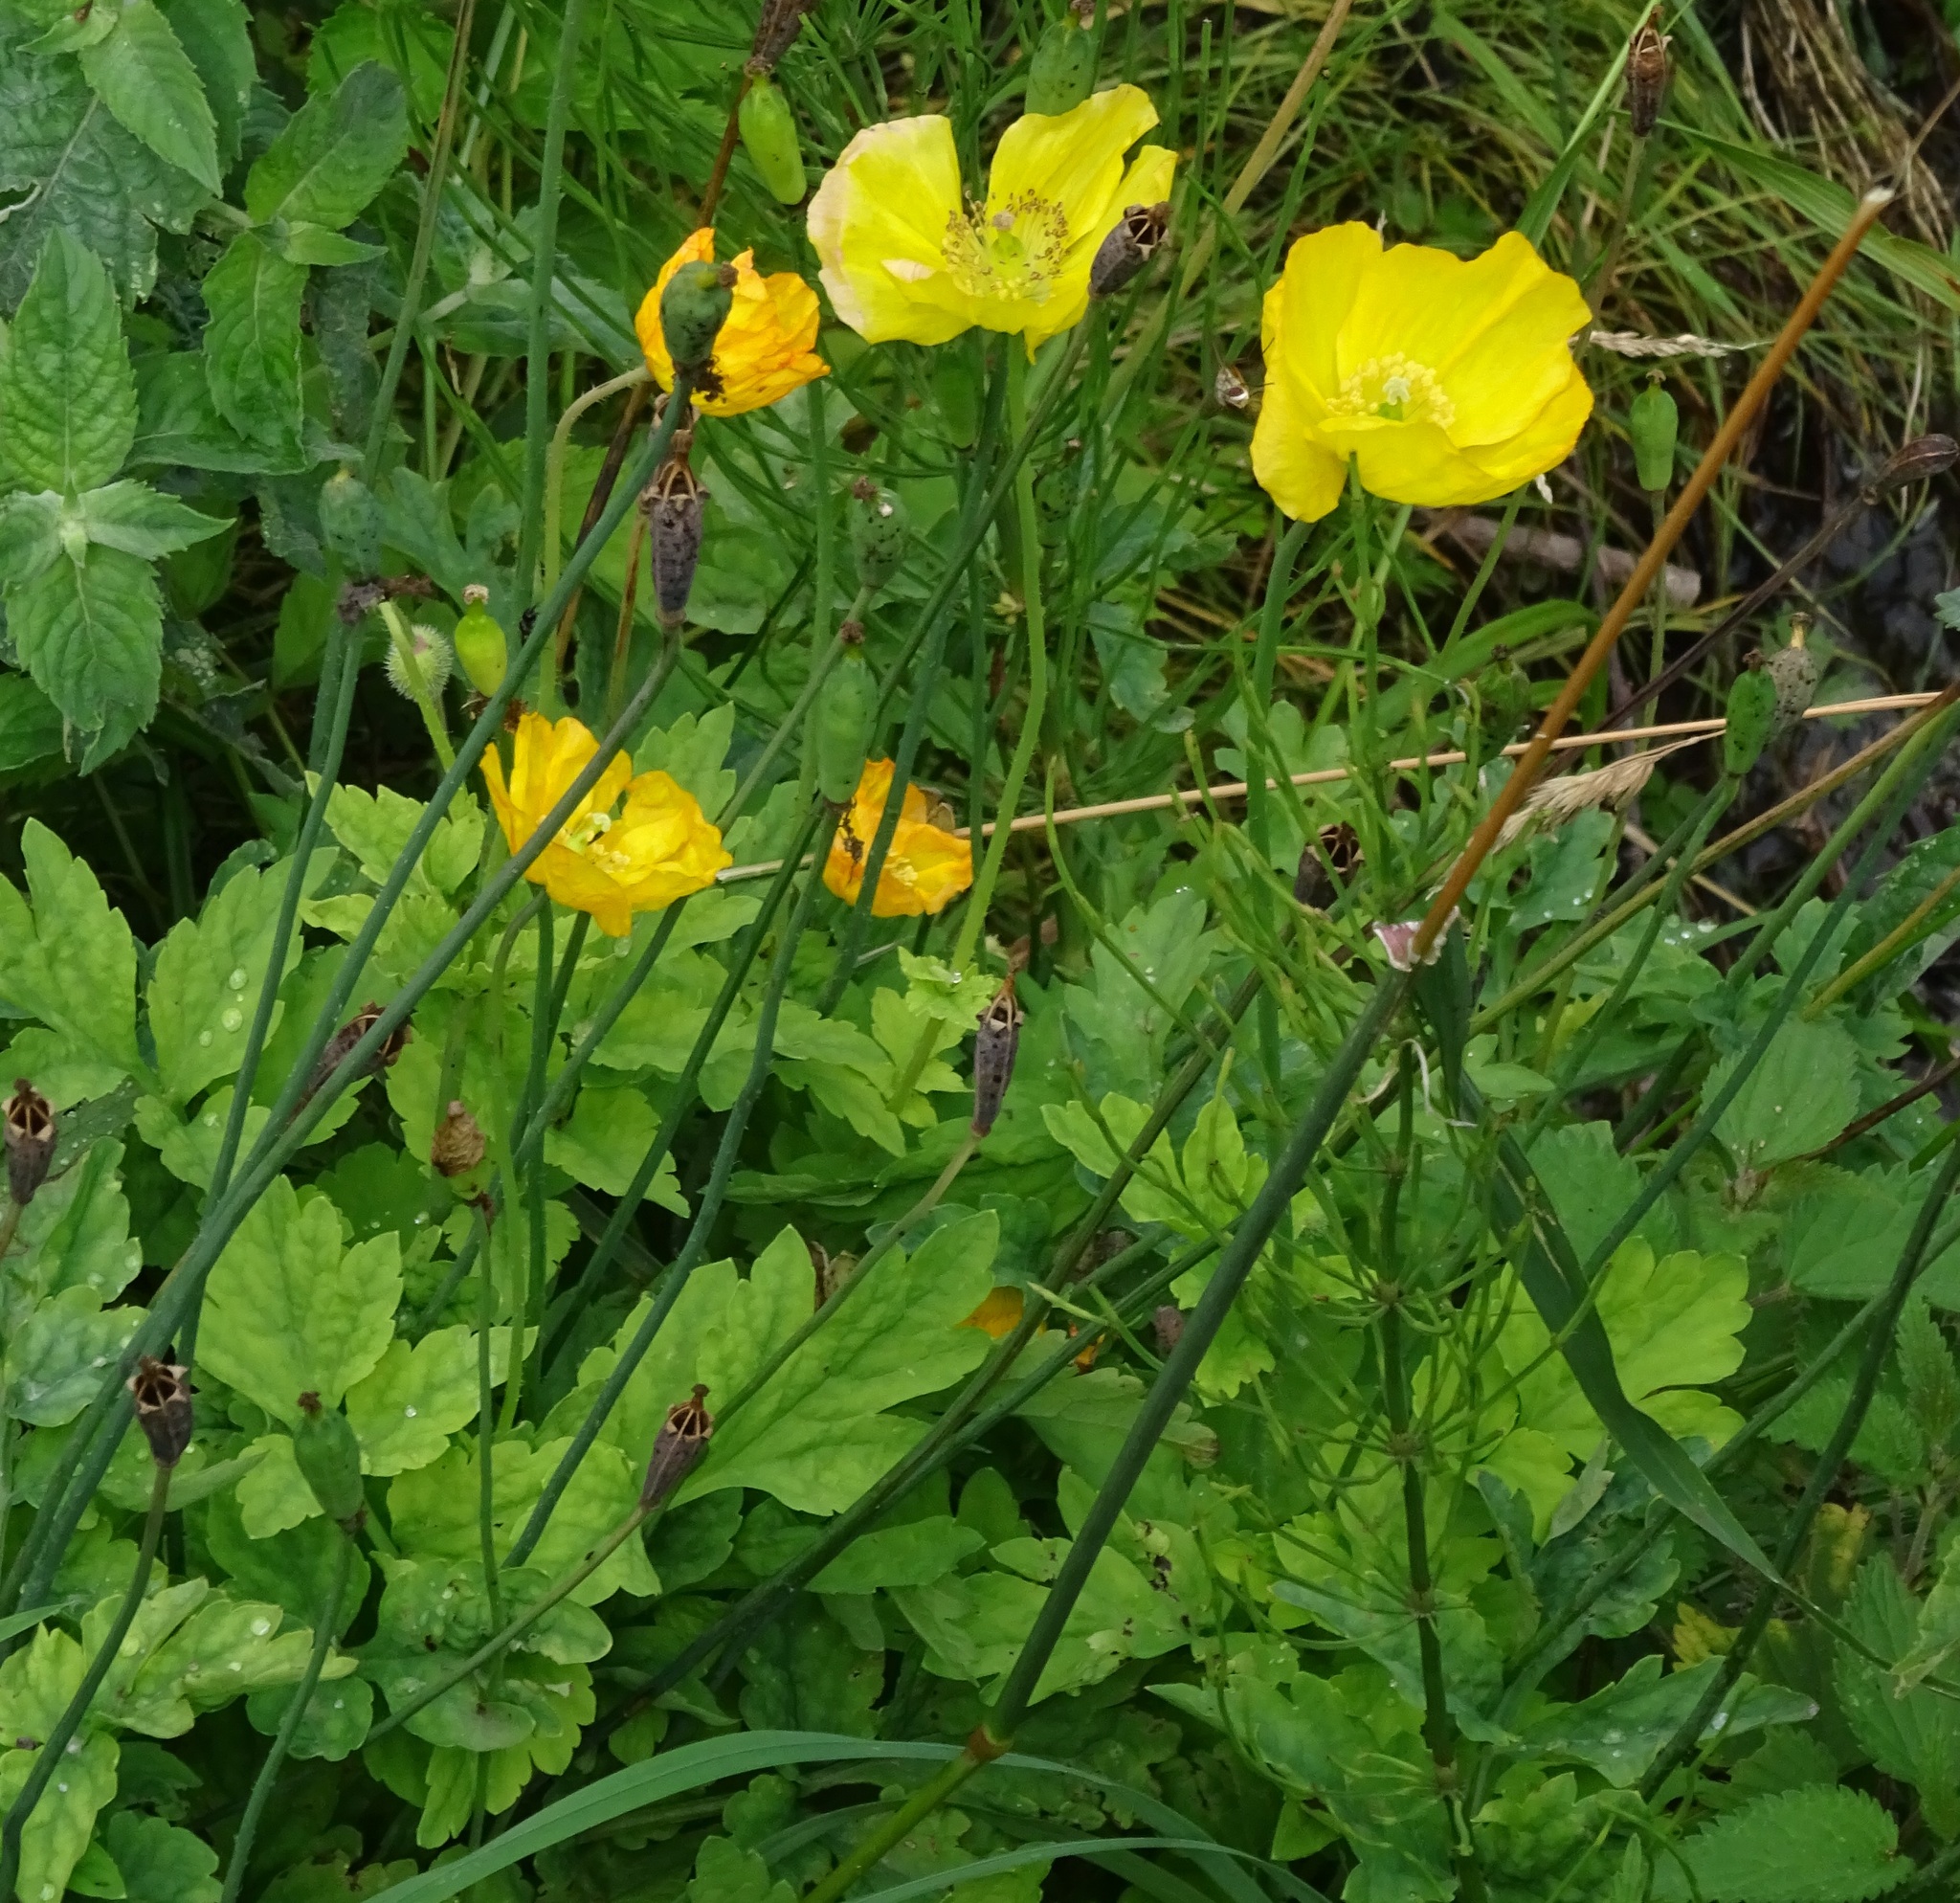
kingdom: Plantae
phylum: Tracheophyta
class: Magnoliopsida
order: Ranunculales
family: Papaveraceae
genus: Papaver
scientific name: Papaver cambricum
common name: Poppy
